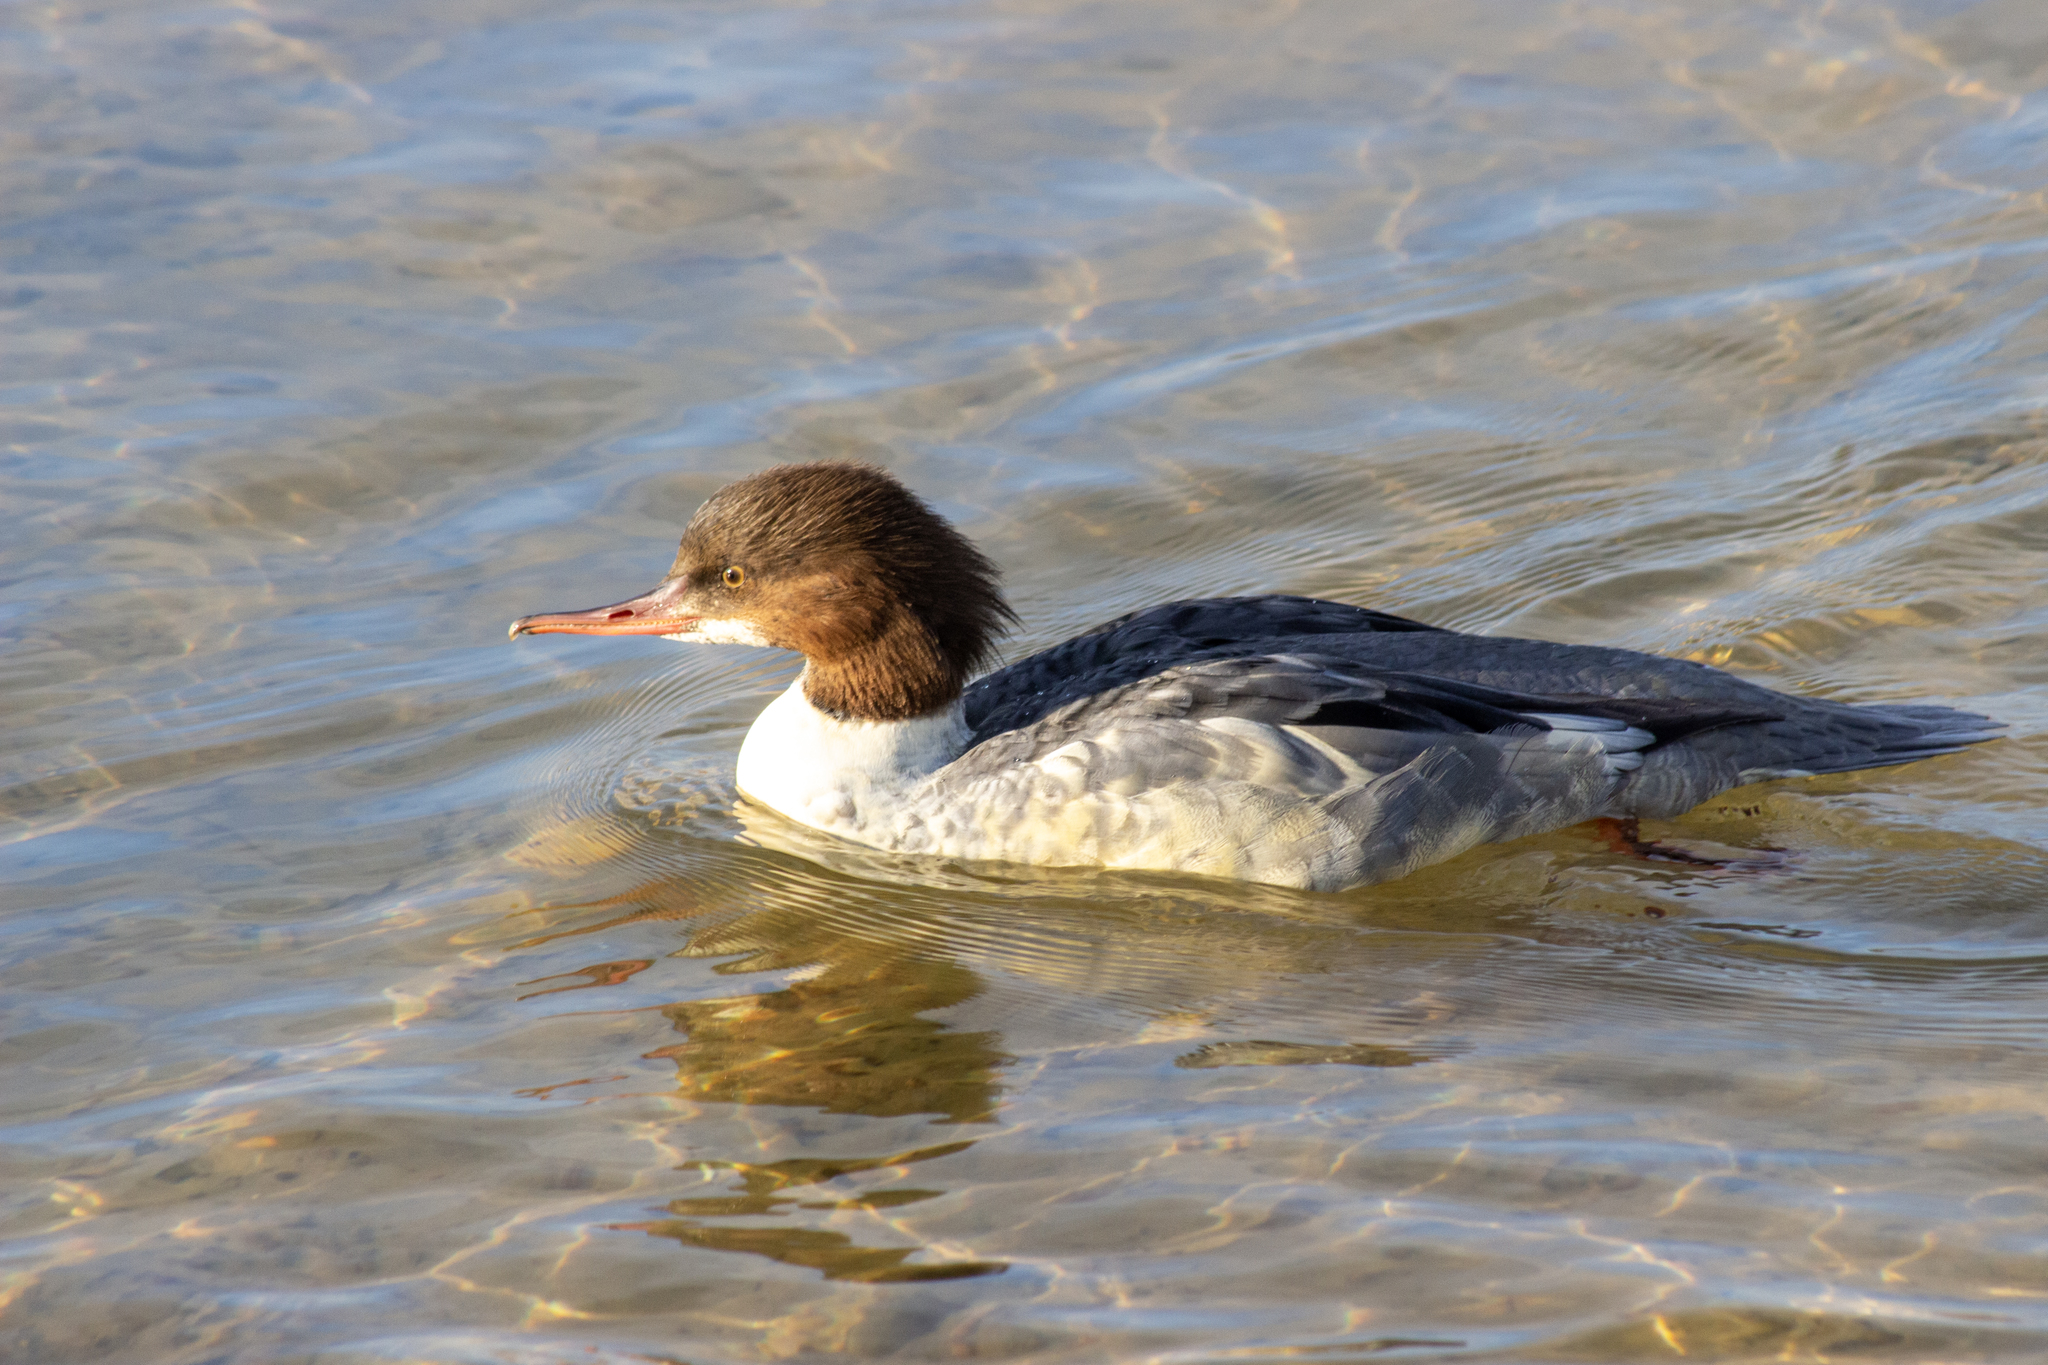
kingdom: Animalia
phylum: Chordata
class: Aves
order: Anseriformes
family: Anatidae
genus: Mergus
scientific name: Mergus merganser
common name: Common merganser
